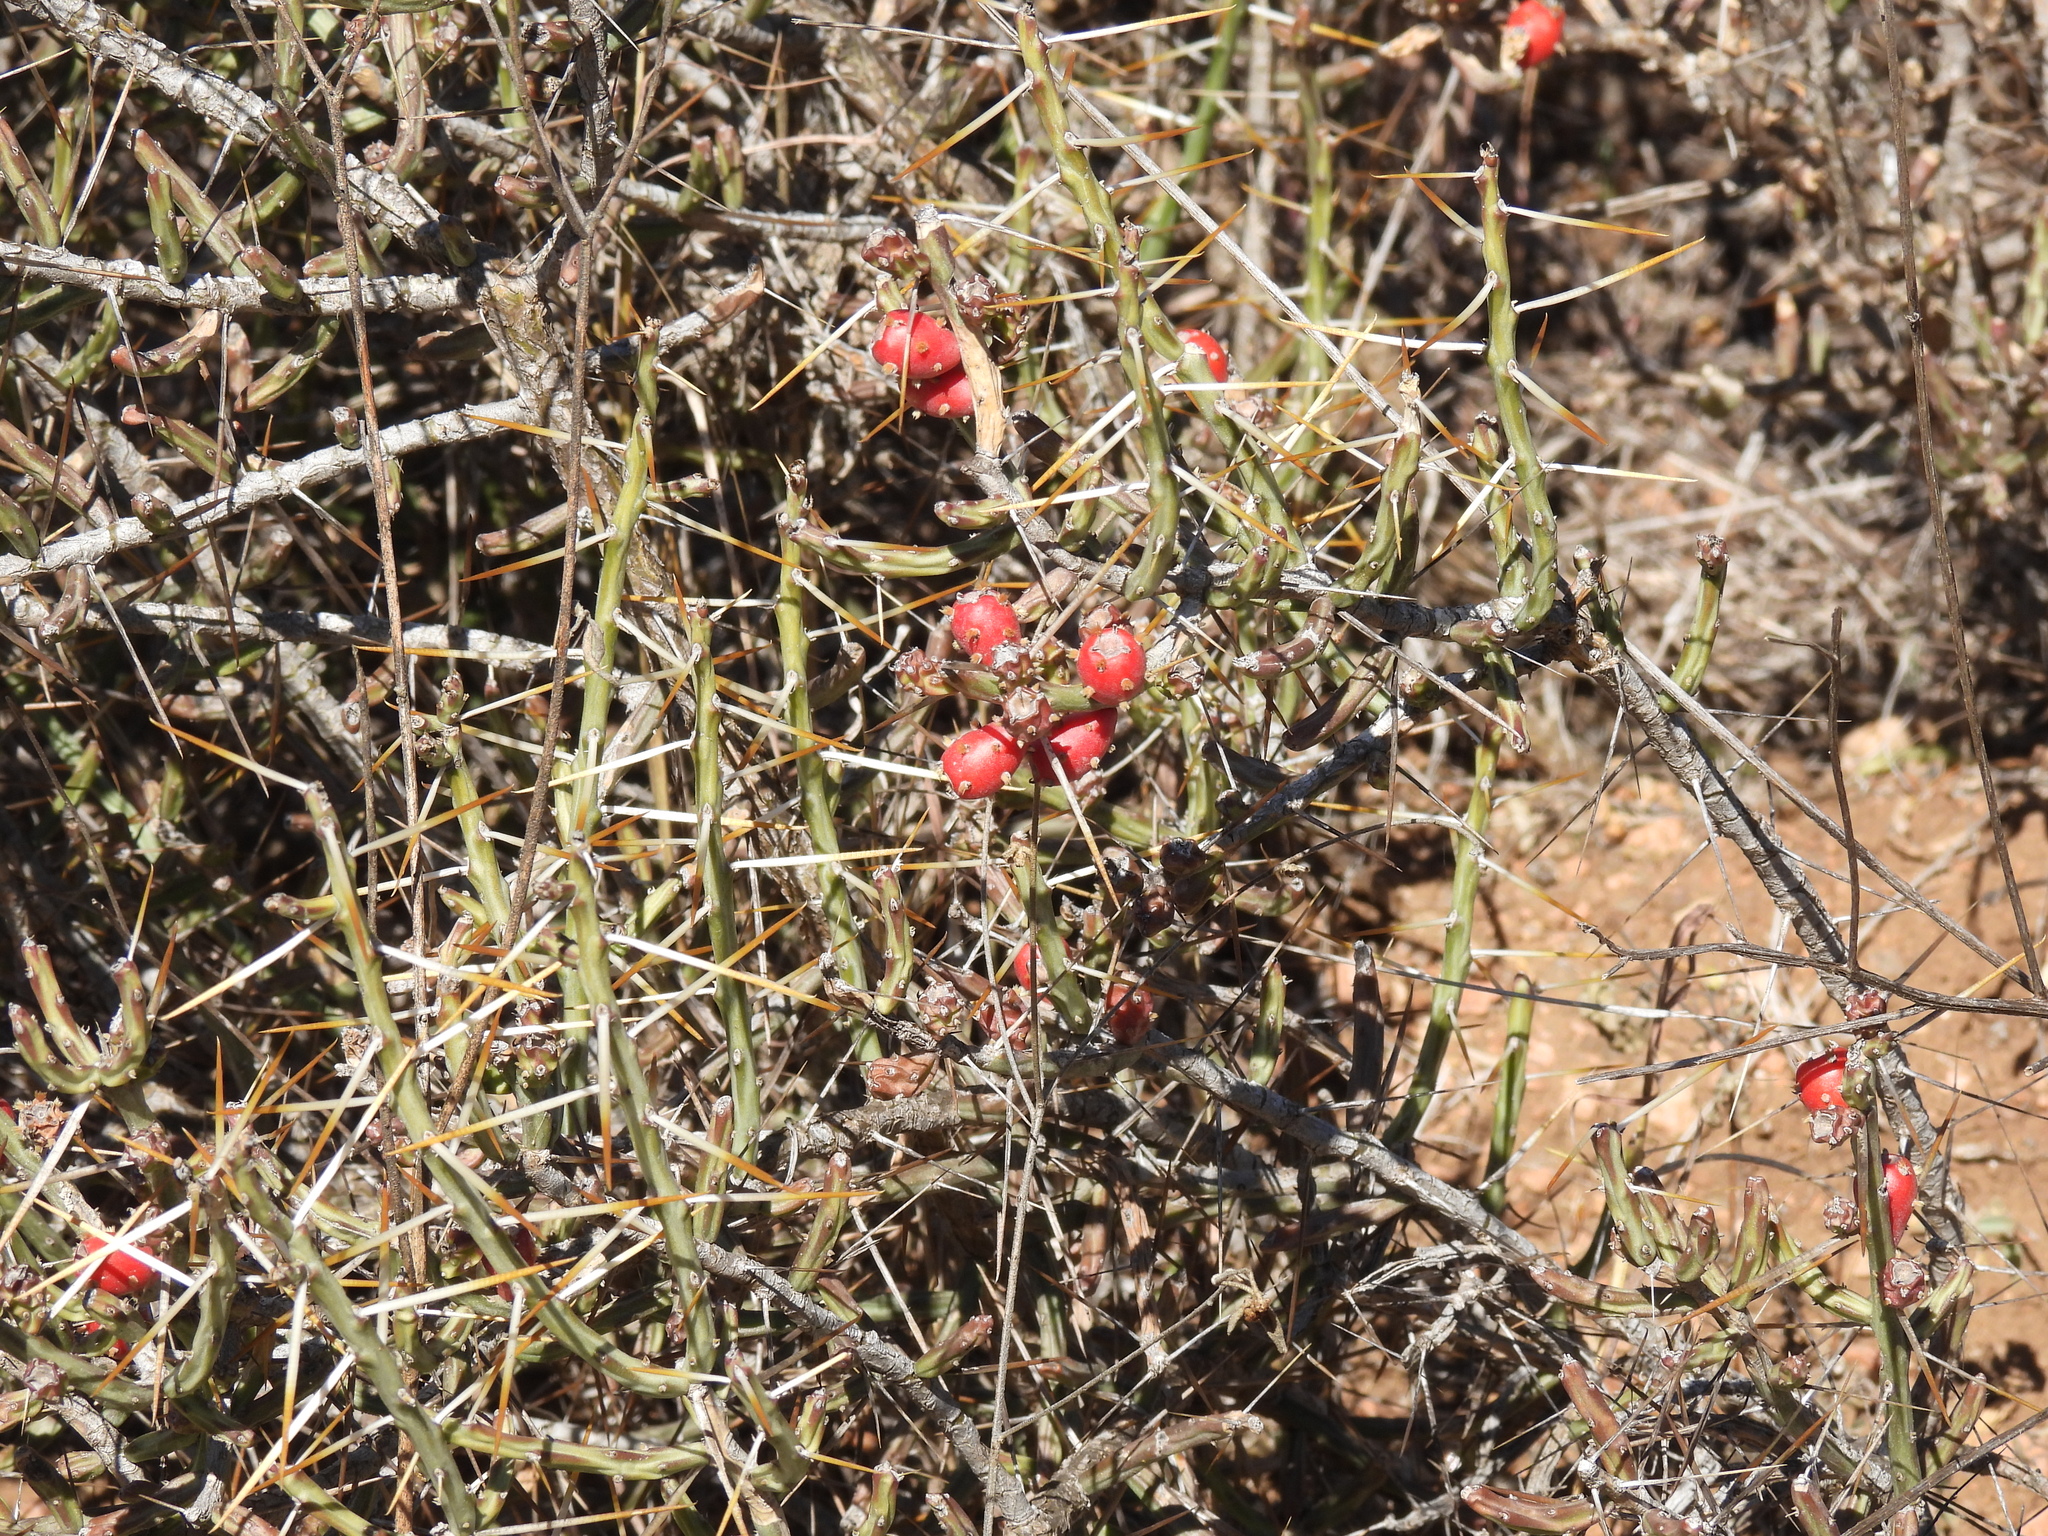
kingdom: Plantae
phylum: Tracheophyta
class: Magnoliopsida
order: Caryophyllales
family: Cactaceae
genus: Cylindropuntia
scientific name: Cylindropuntia leptocaulis
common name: Christmas cactus
